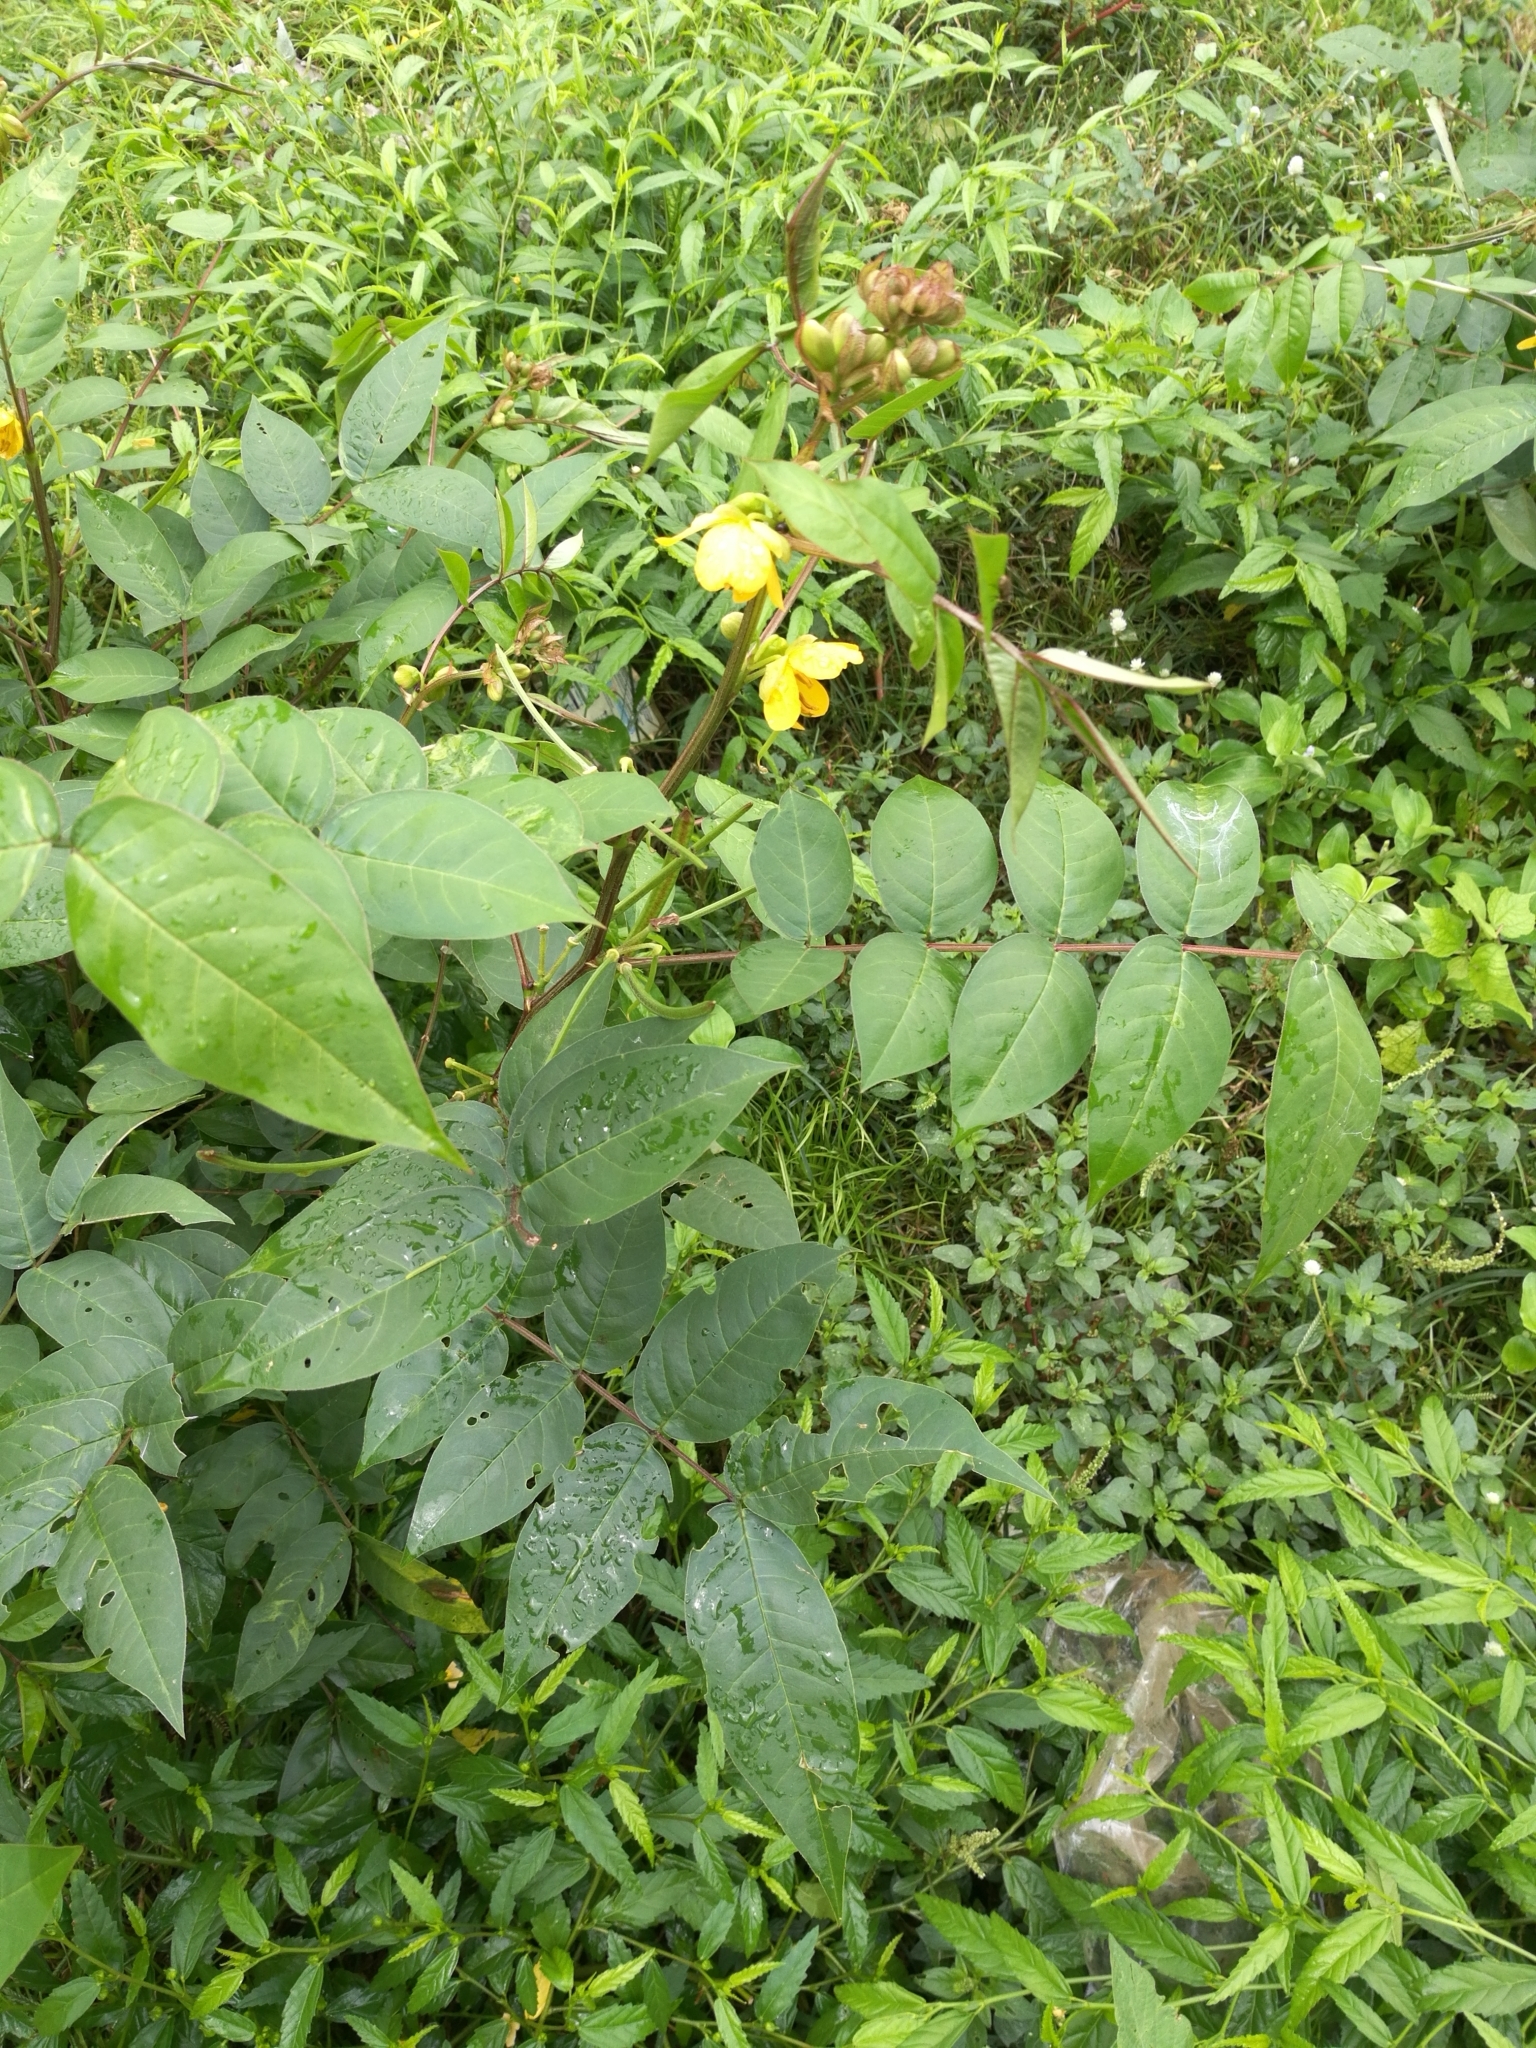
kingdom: Plantae
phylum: Tracheophyta
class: Magnoliopsida
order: Fabales
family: Fabaceae
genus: Senna
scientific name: Senna occidentalis
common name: Septicweed
